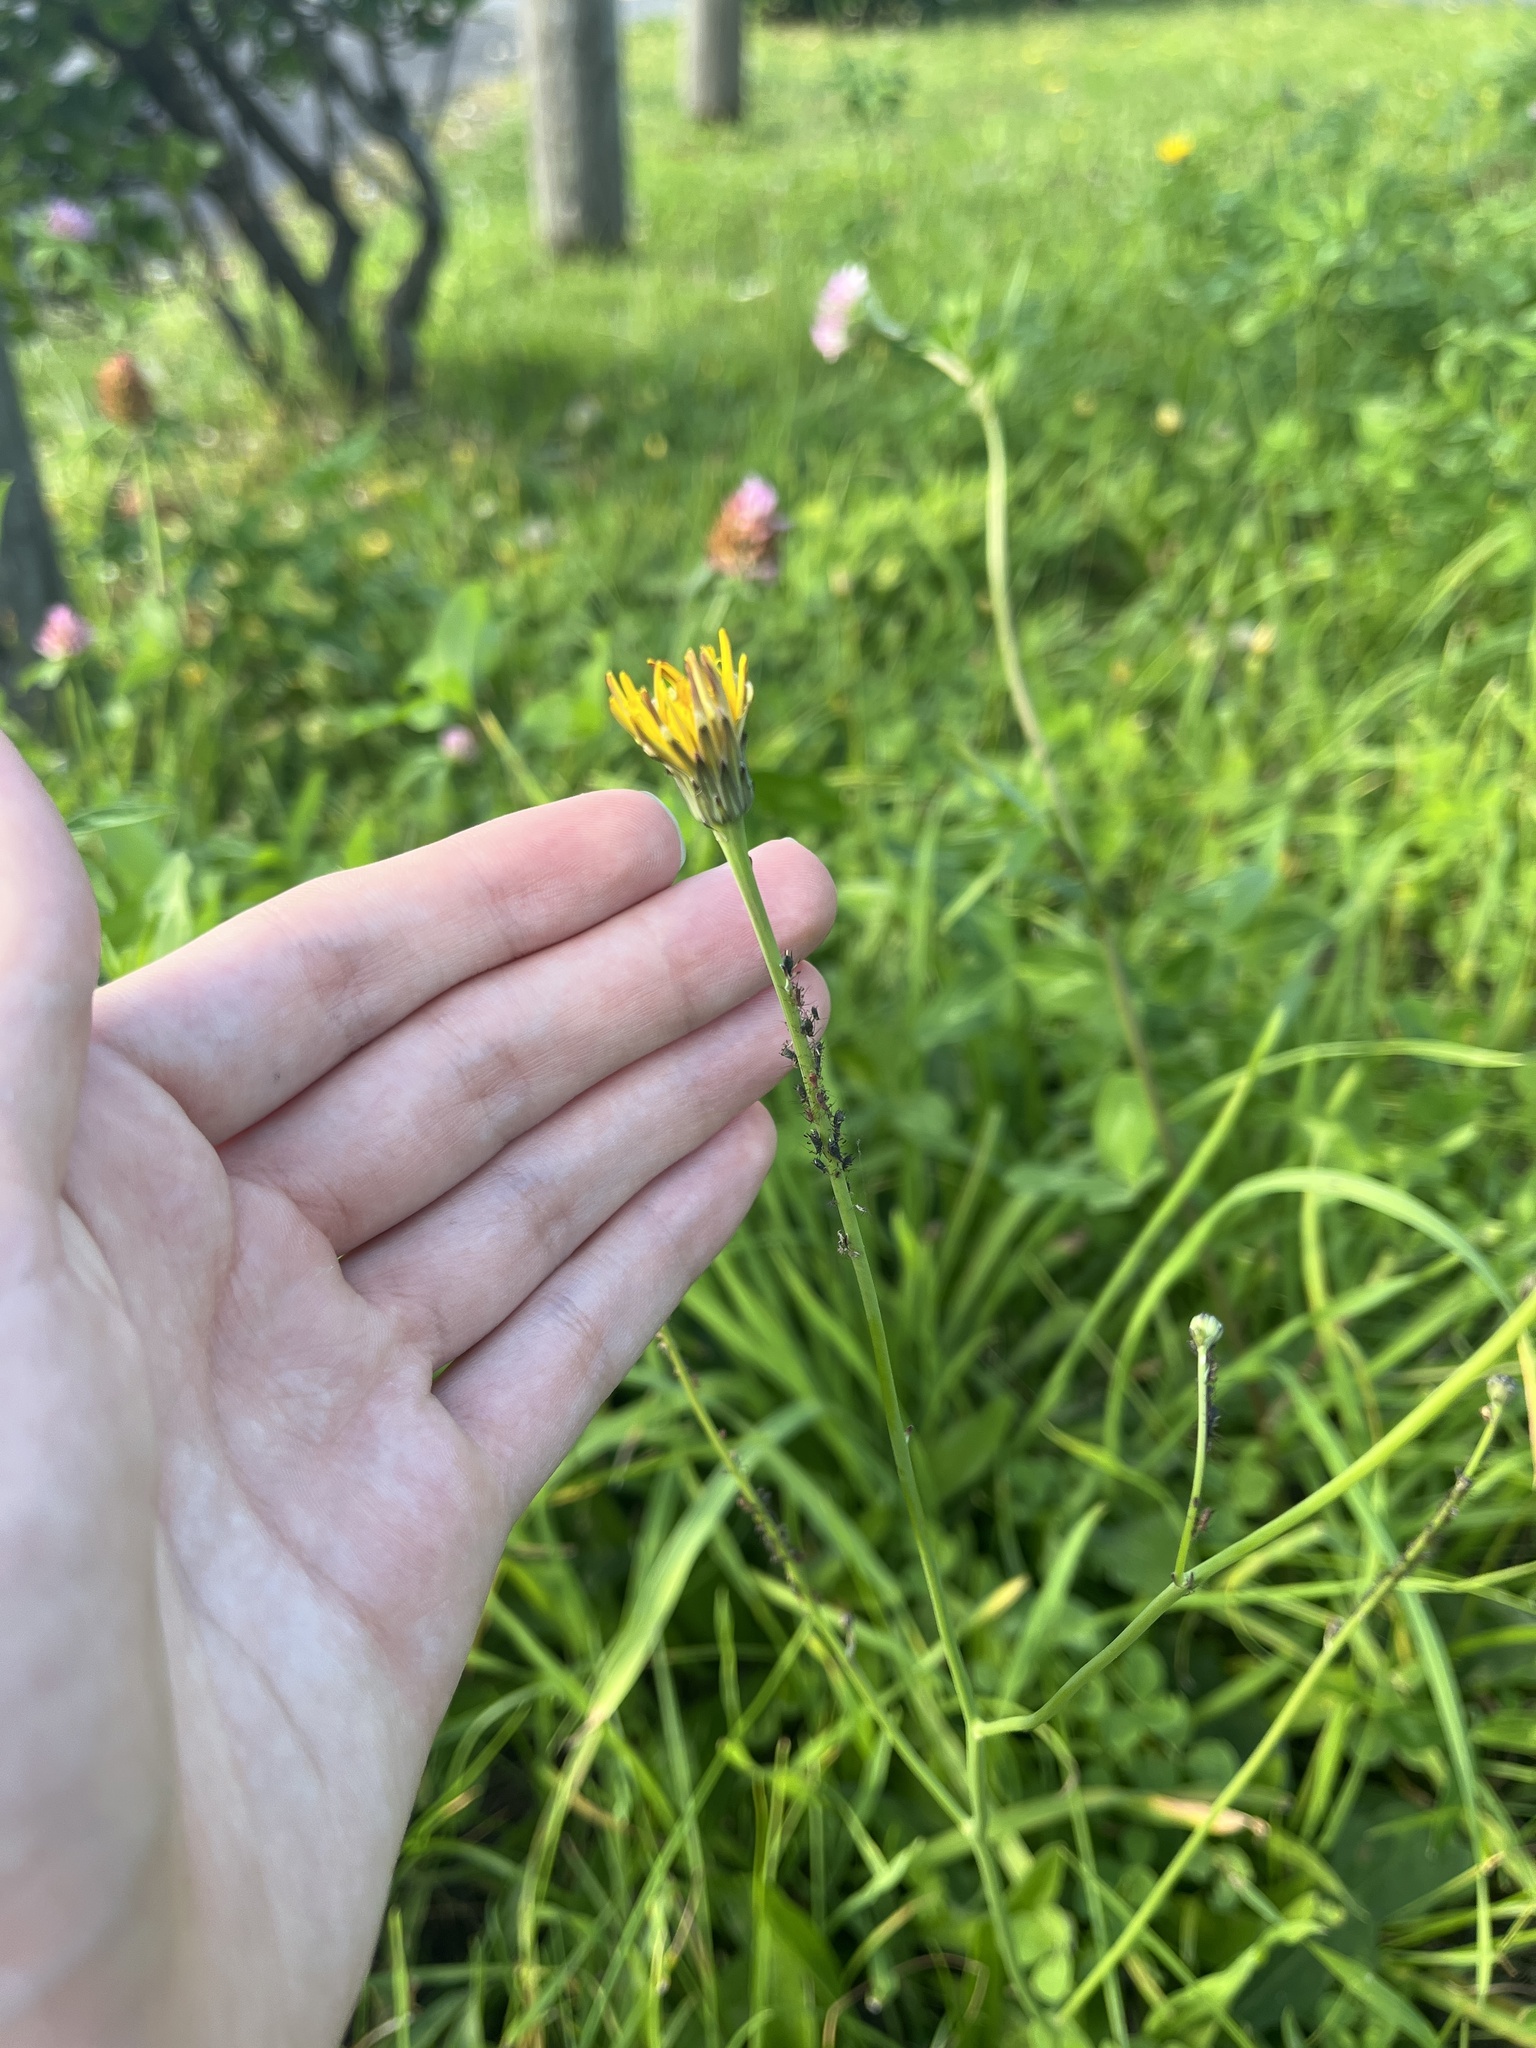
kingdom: Plantae
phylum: Tracheophyta
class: Magnoliopsida
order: Asterales
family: Asteraceae
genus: Hypochaeris
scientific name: Hypochaeris radicata
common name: Flatweed
